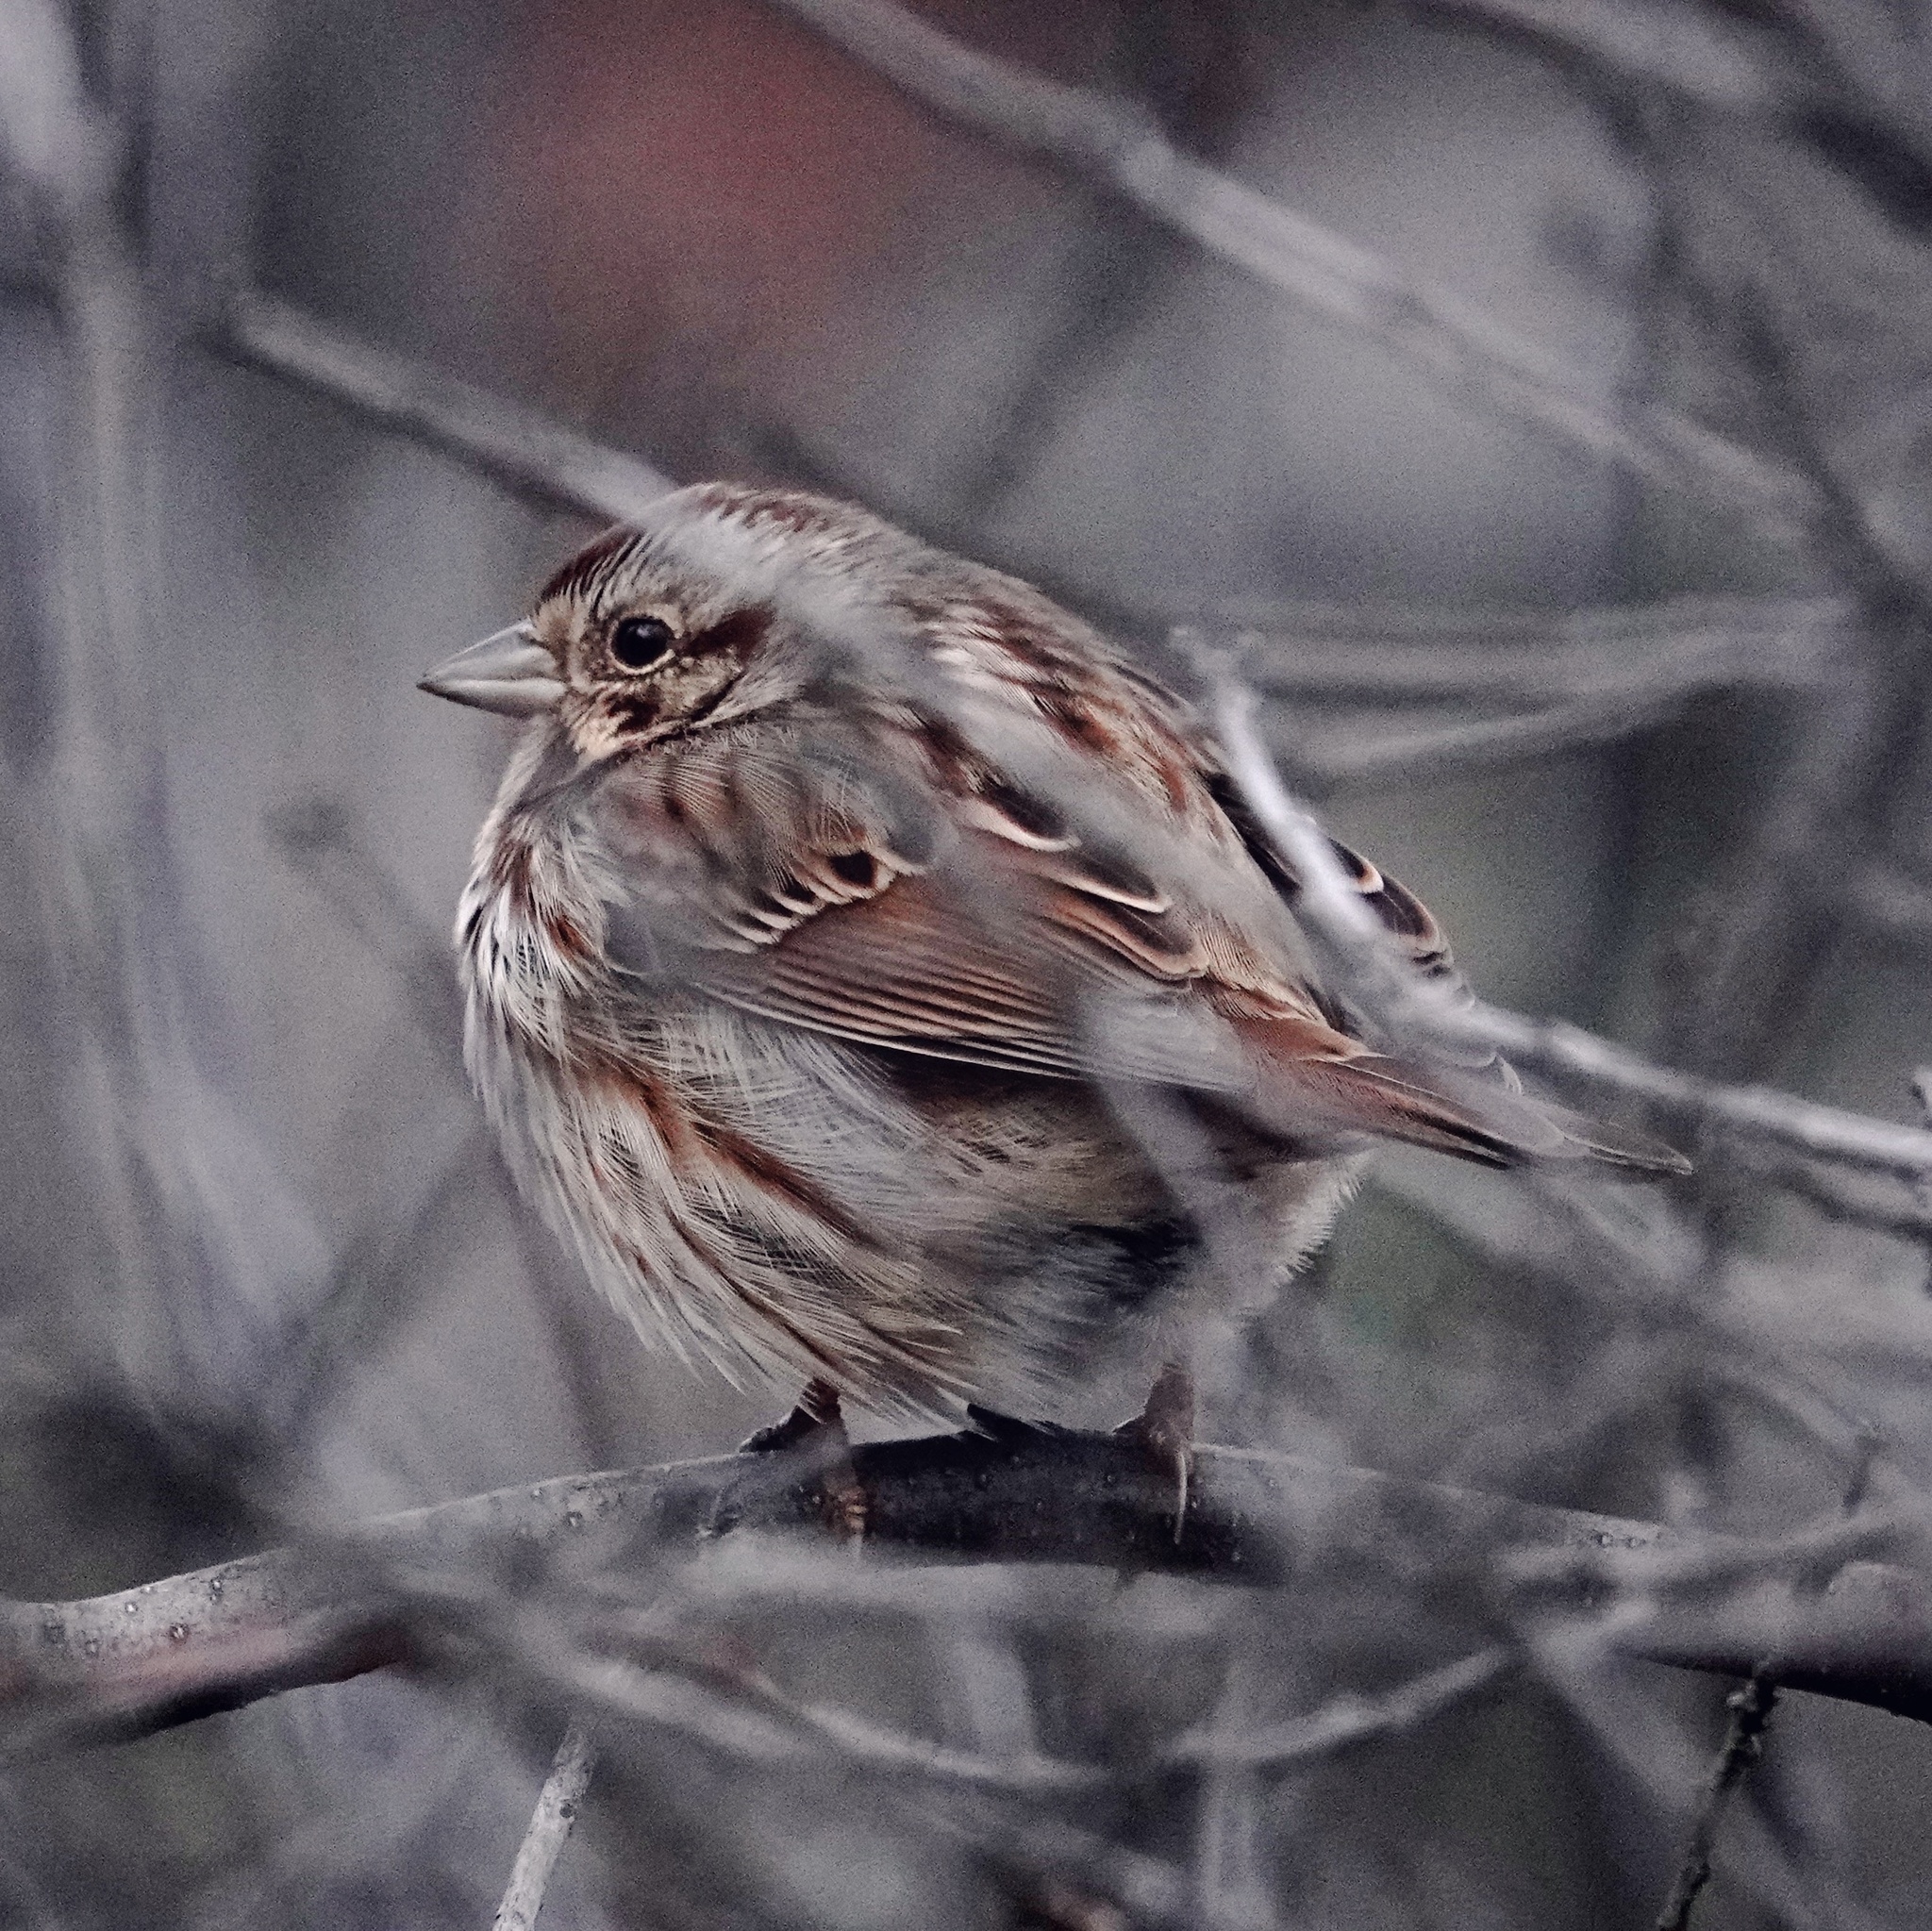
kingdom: Animalia
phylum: Chordata
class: Aves
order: Passeriformes
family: Passerellidae
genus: Melospiza
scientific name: Melospiza melodia
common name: Song sparrow
